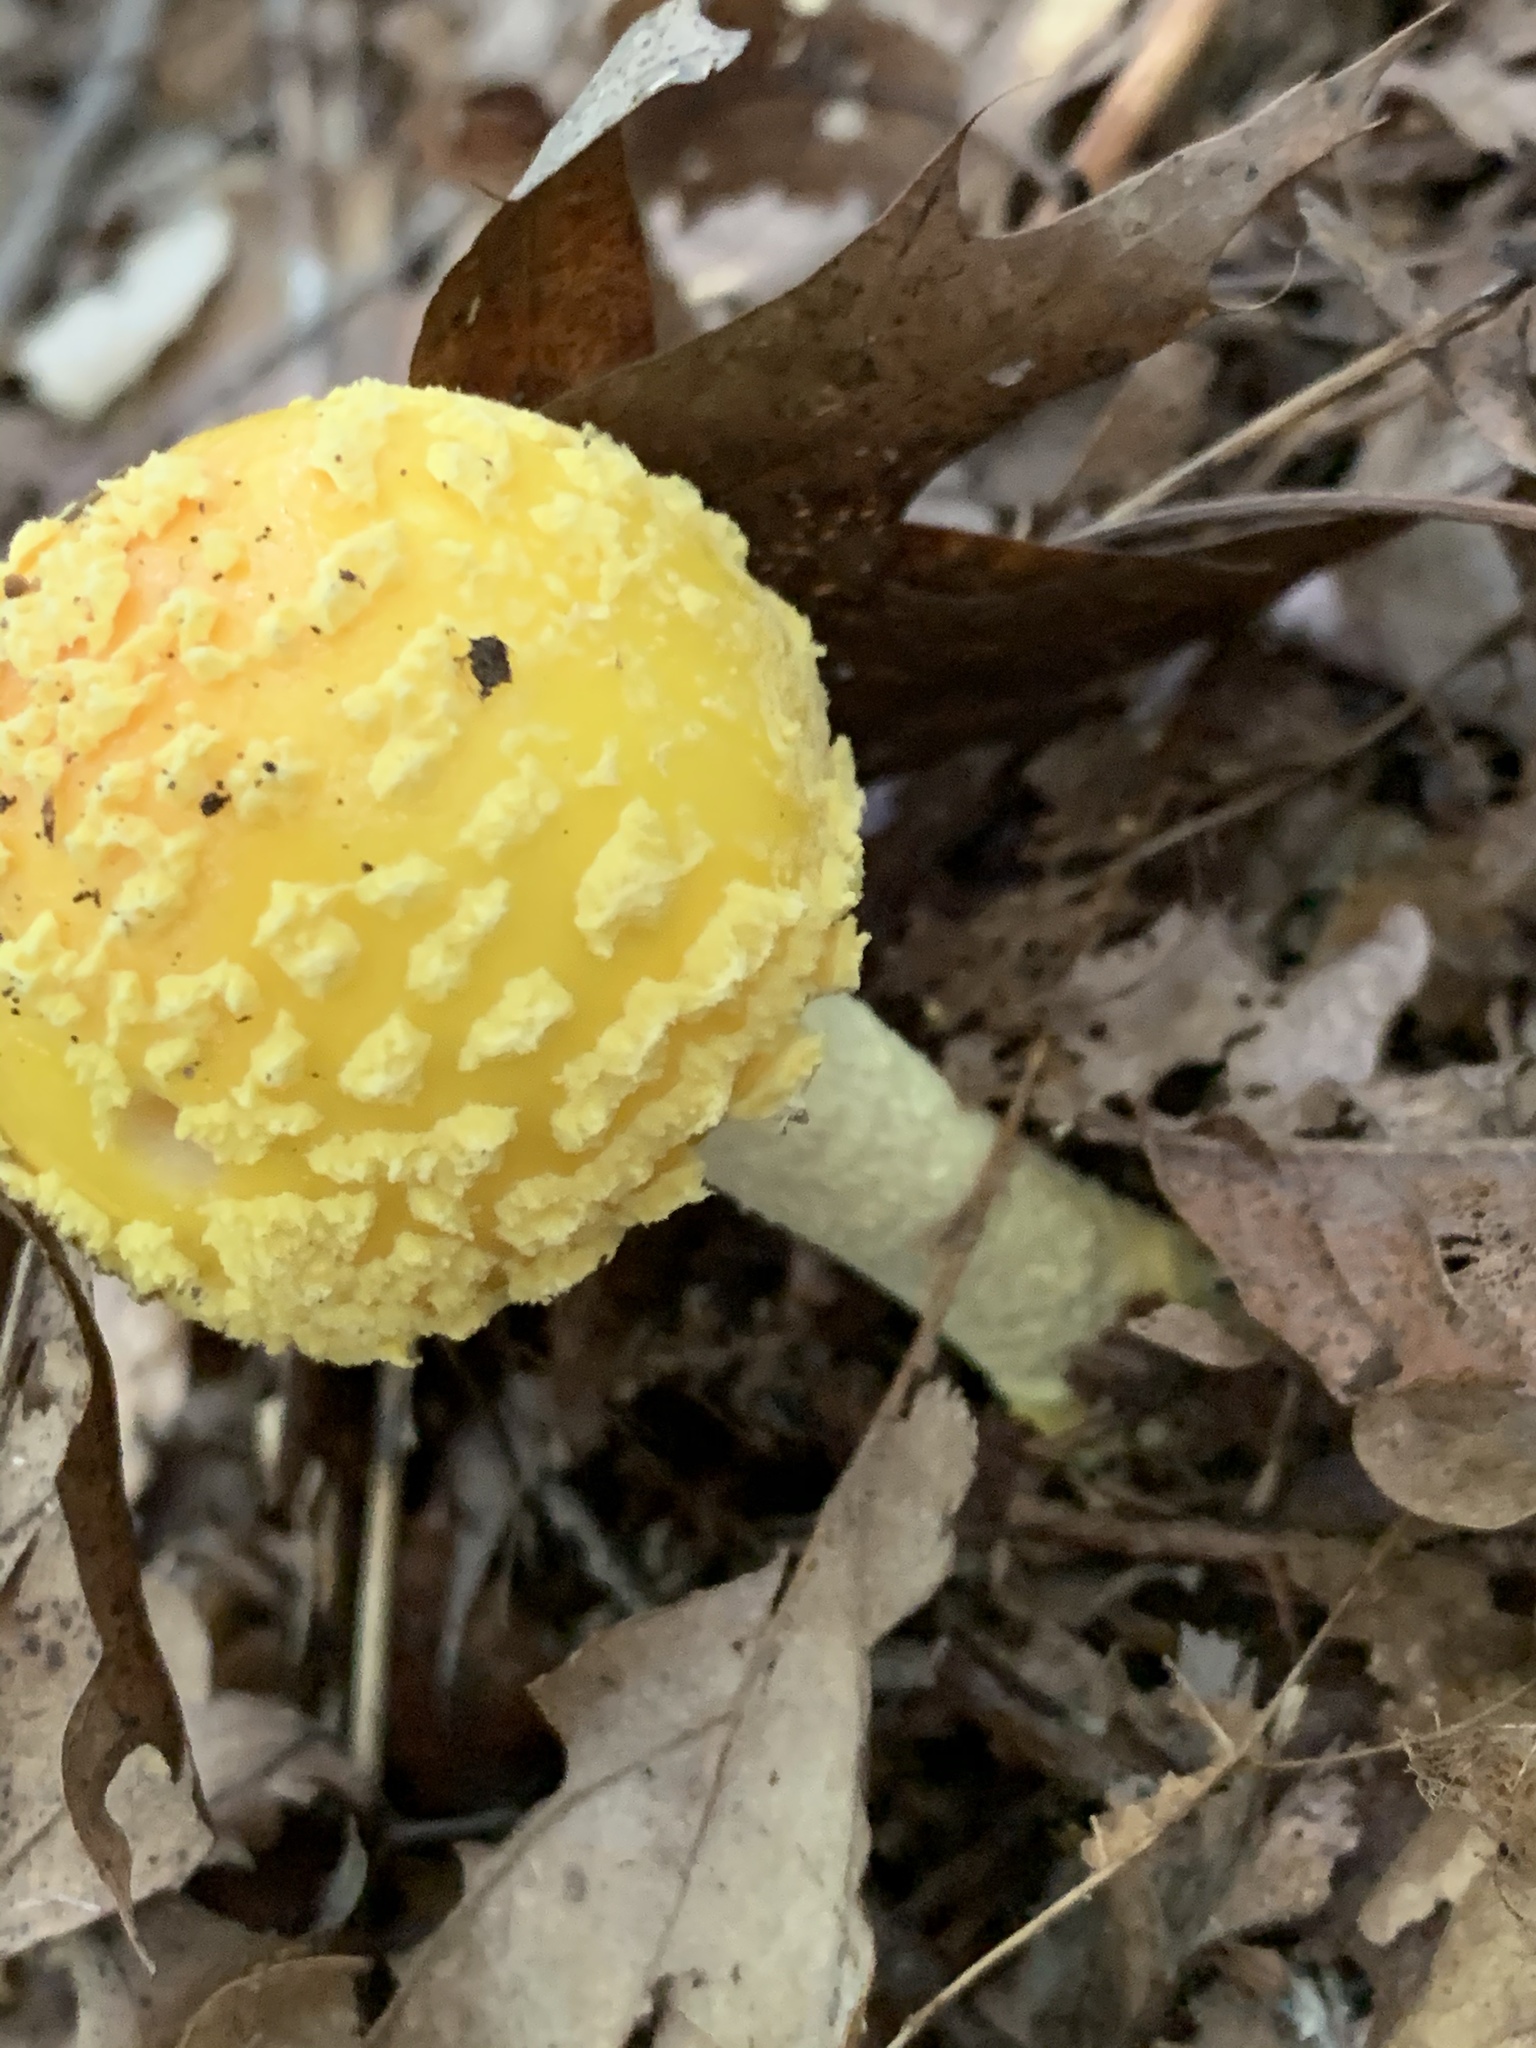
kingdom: Fungi
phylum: Basidiomycota
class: Agaricomycetes
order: Agaricales
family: Amanitaceae
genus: Amanita
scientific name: Amanita muscaria
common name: Fly agaric
